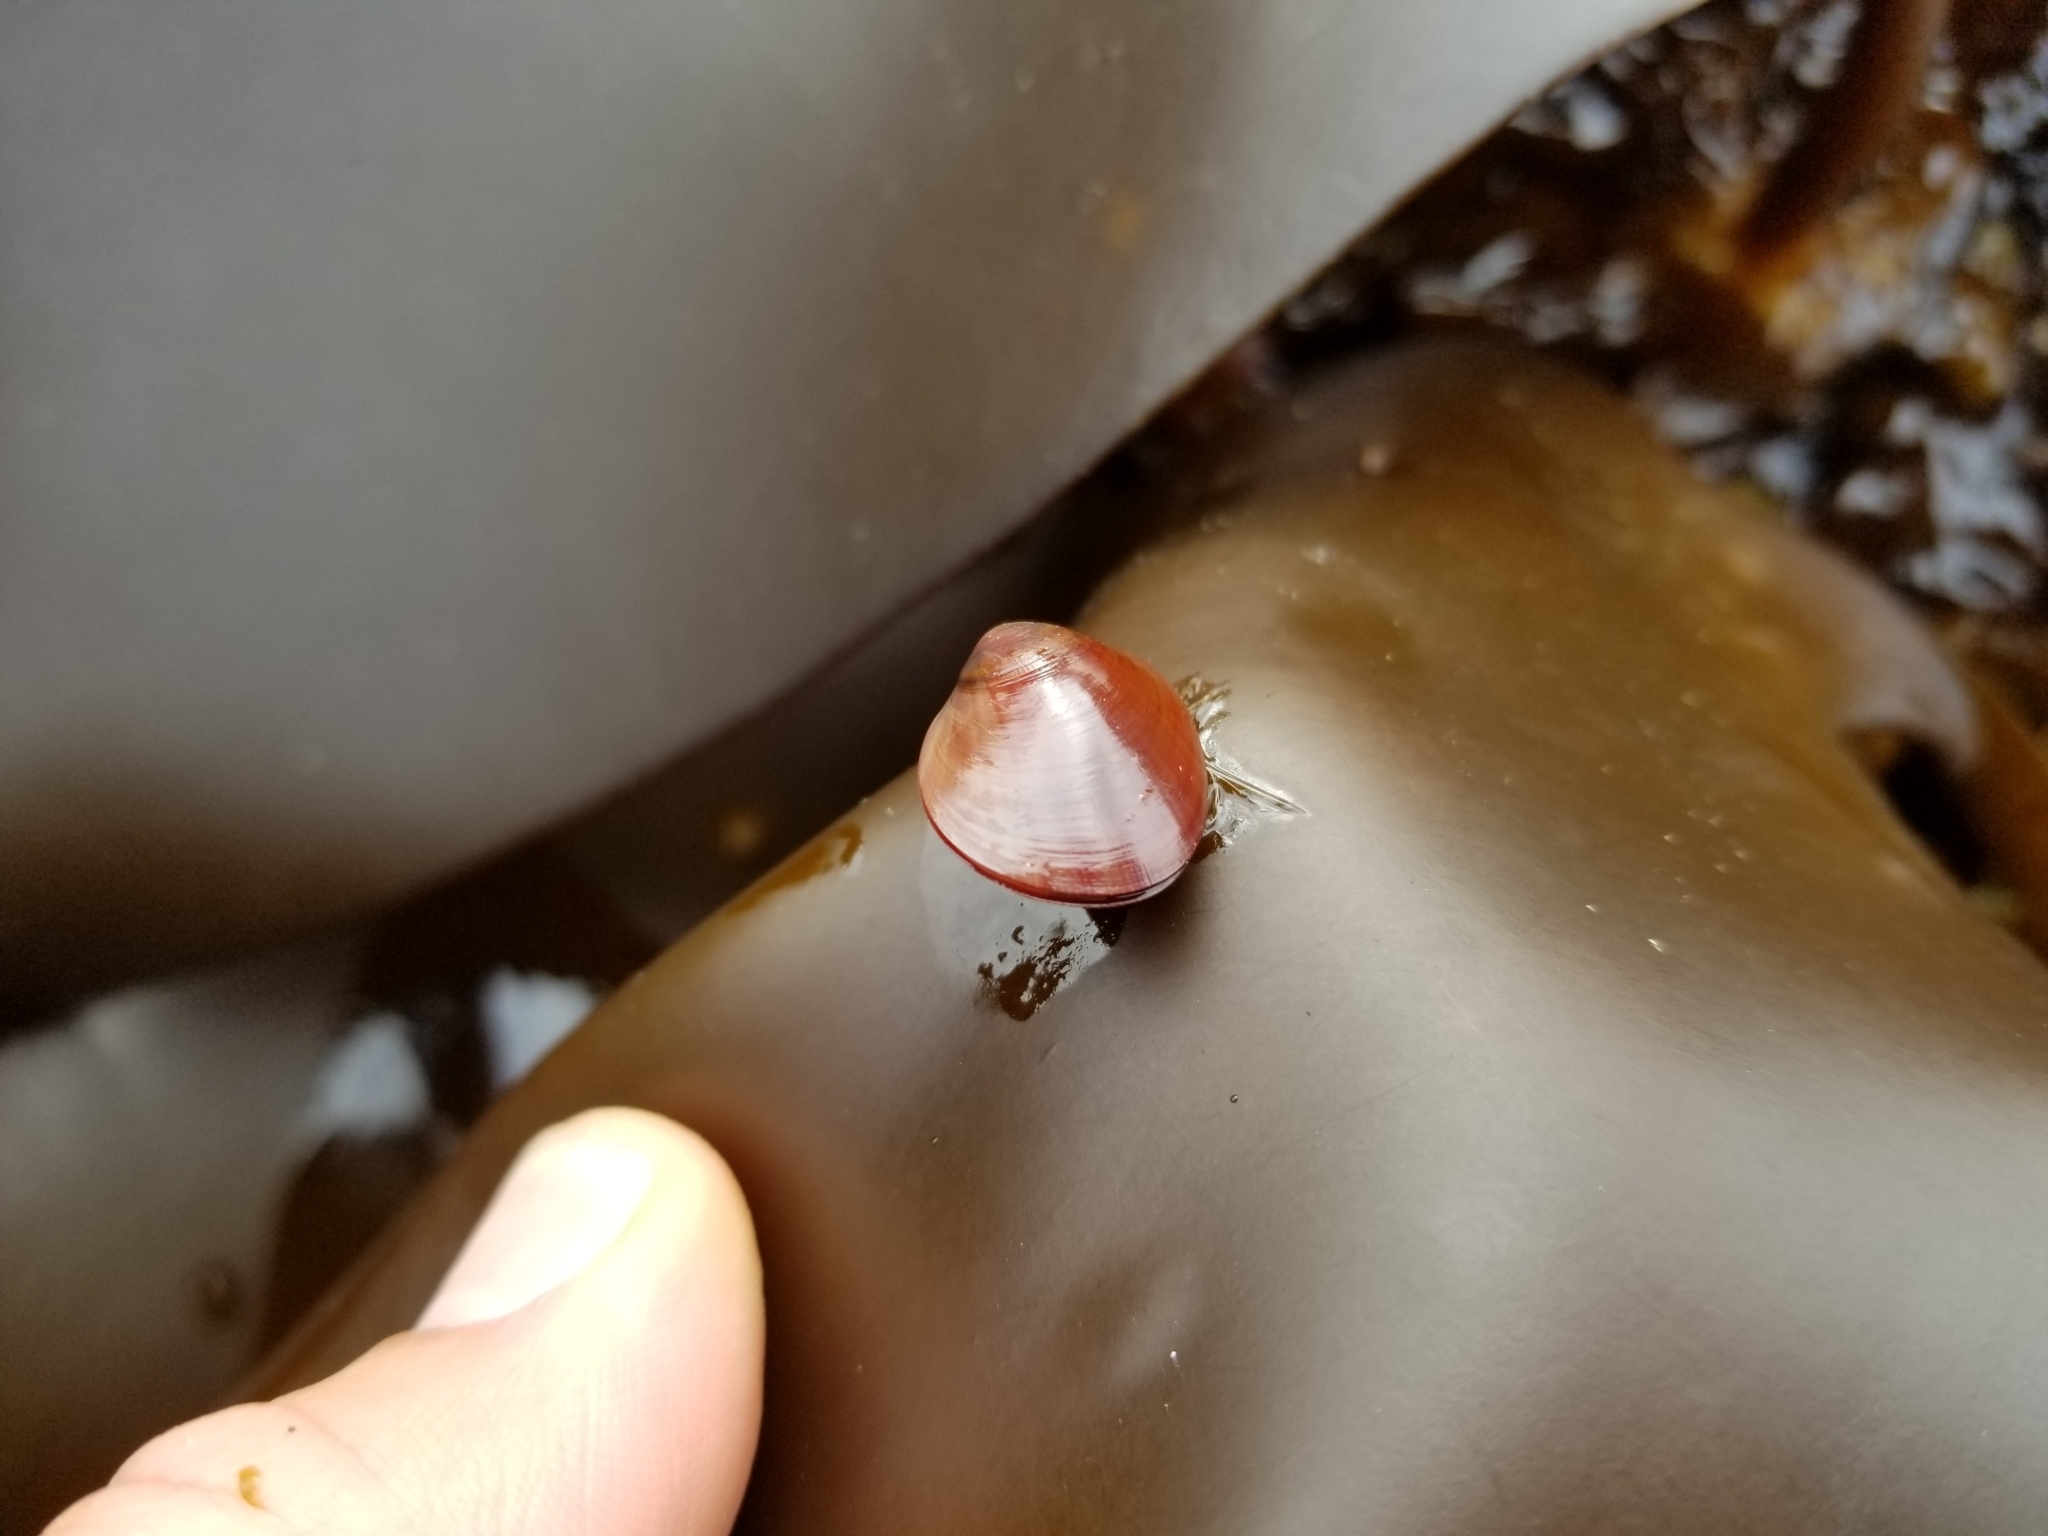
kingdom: Animalia
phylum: Mollusca
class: Bivalvia
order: Mytilida
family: Mytilidae
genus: Musculus
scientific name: Musculus discors
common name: Green crenella
